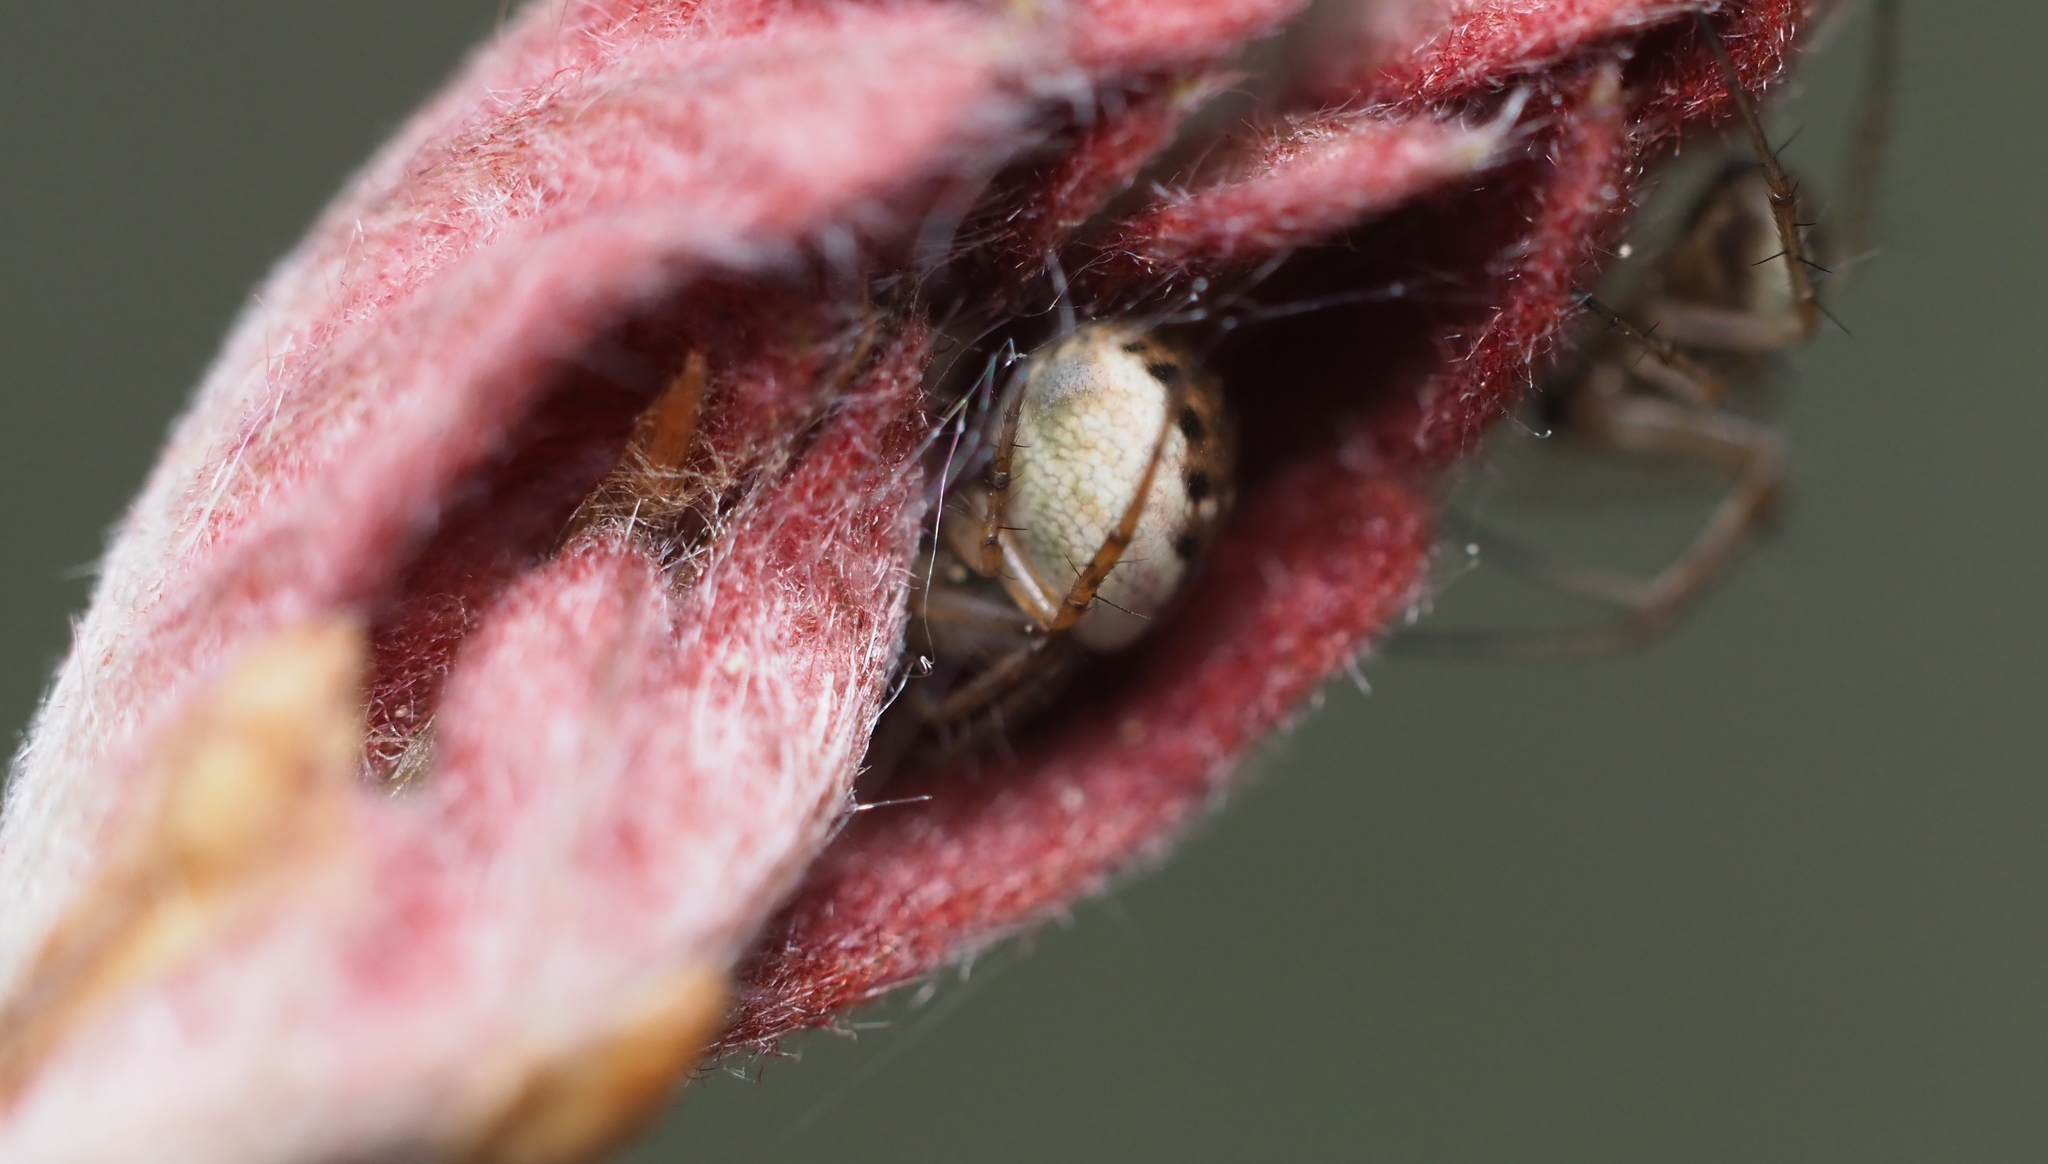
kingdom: Animalia
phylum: Arthropoda
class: Arachnida
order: Araneae
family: Araneidae
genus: Mangora
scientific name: Mangora placida
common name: Tuft-legged orbweaver
